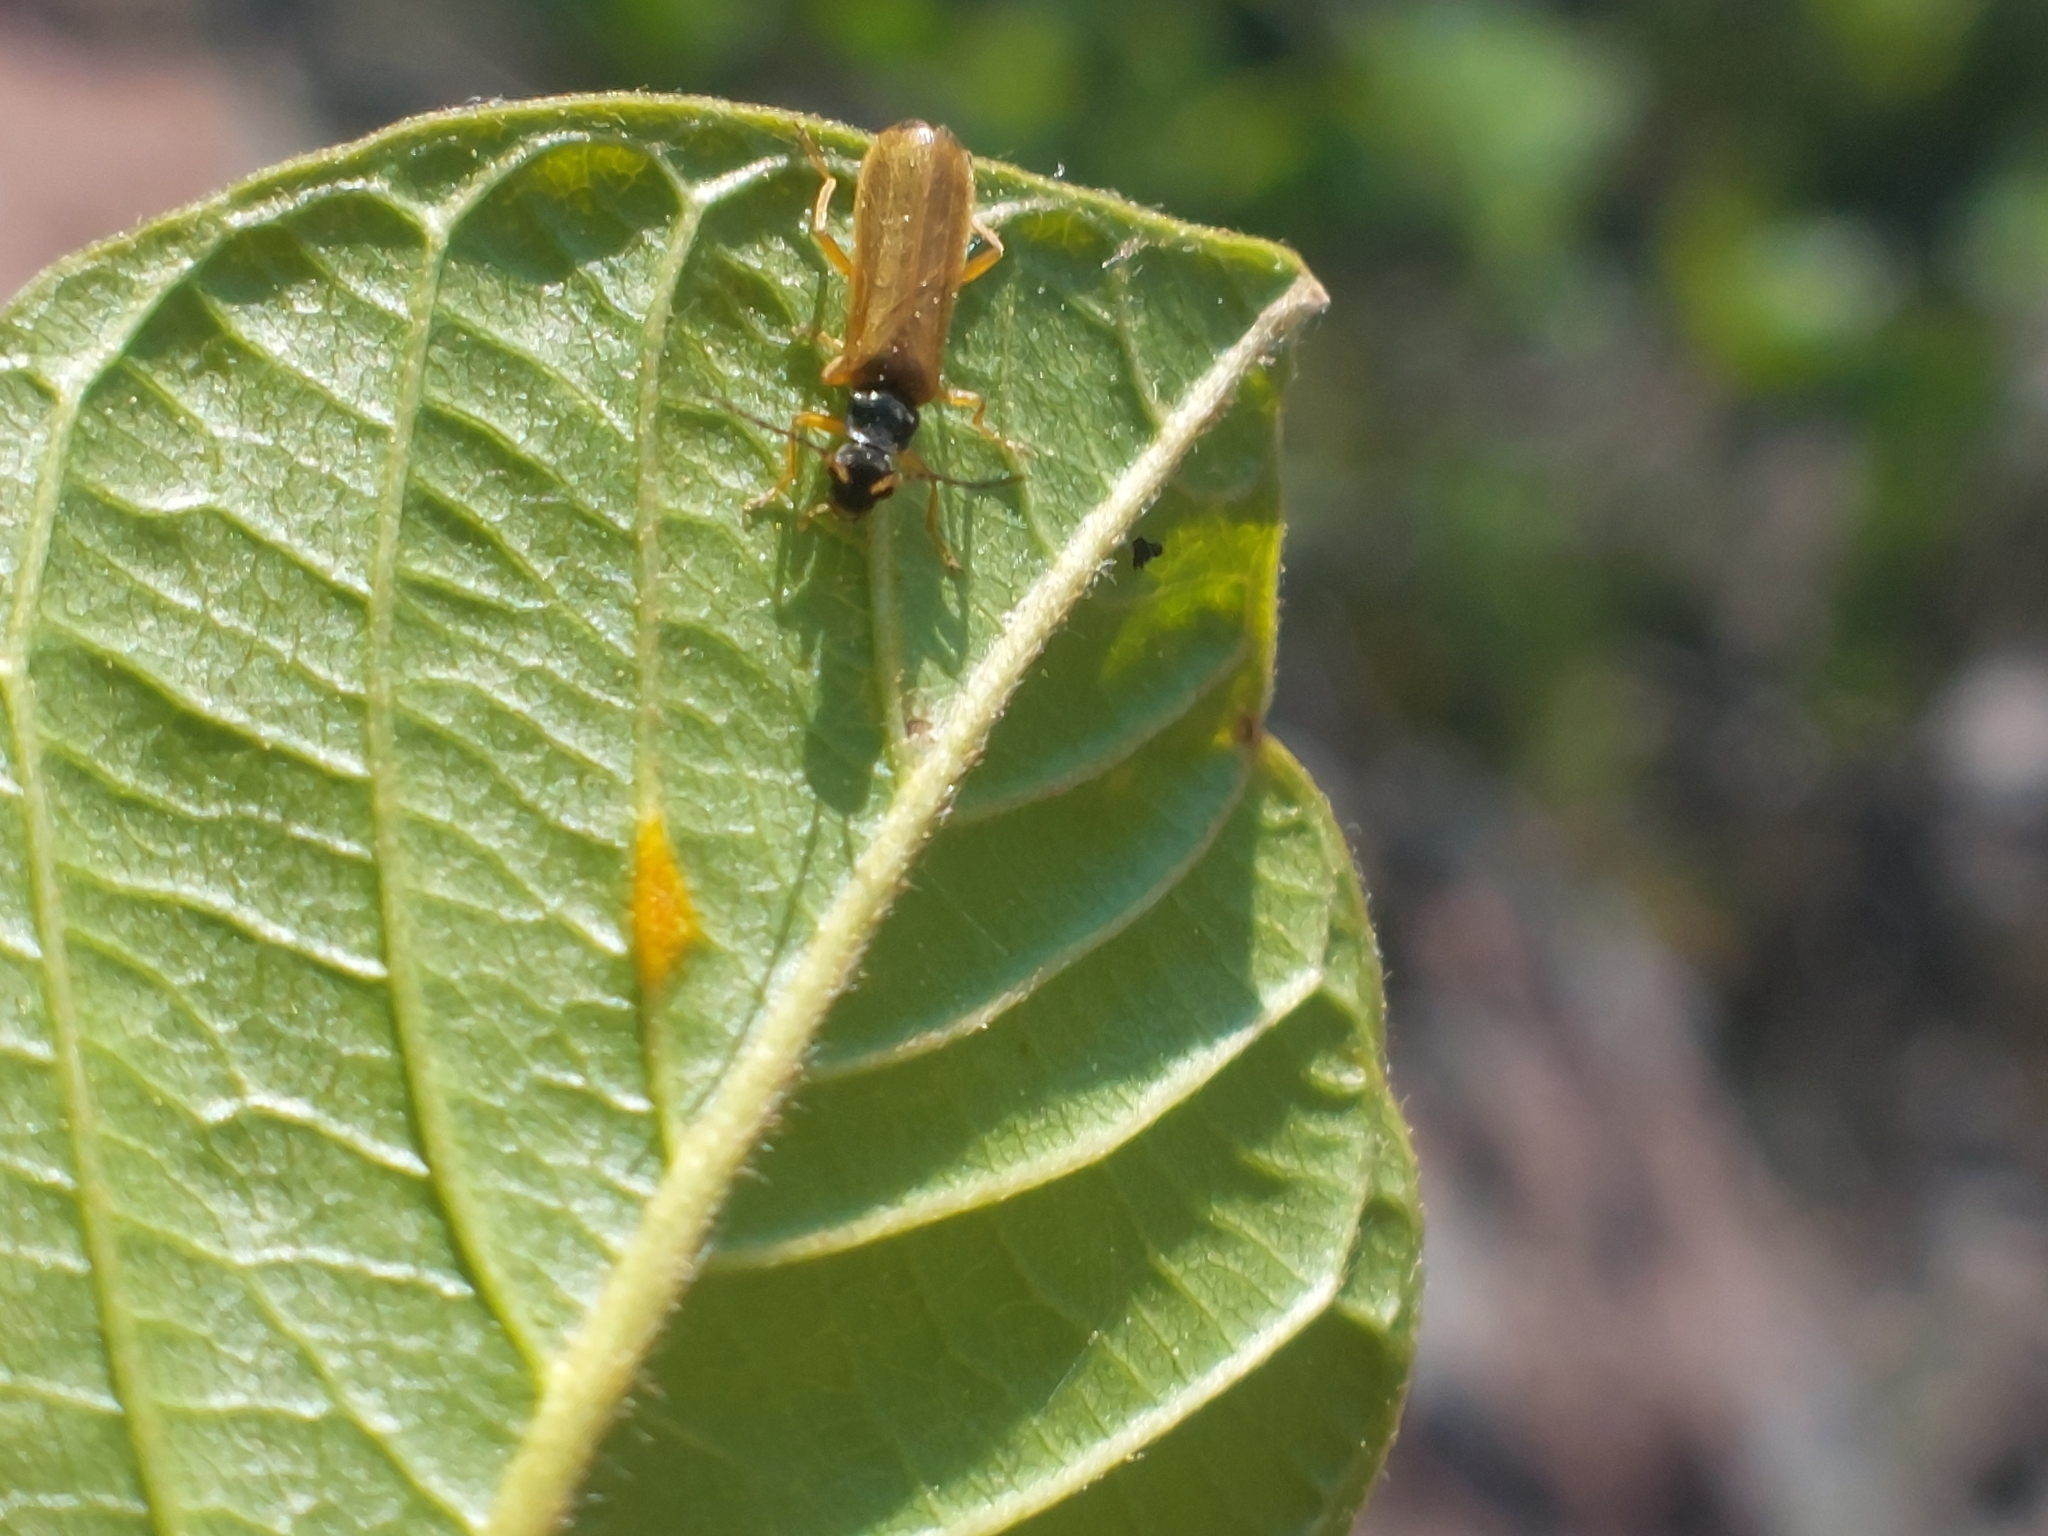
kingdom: Animalia
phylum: Arthropoda
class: Insecta
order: Coleoptera
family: Cantharidae
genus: Rhagonycha
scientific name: Rhagonycha lignosa
